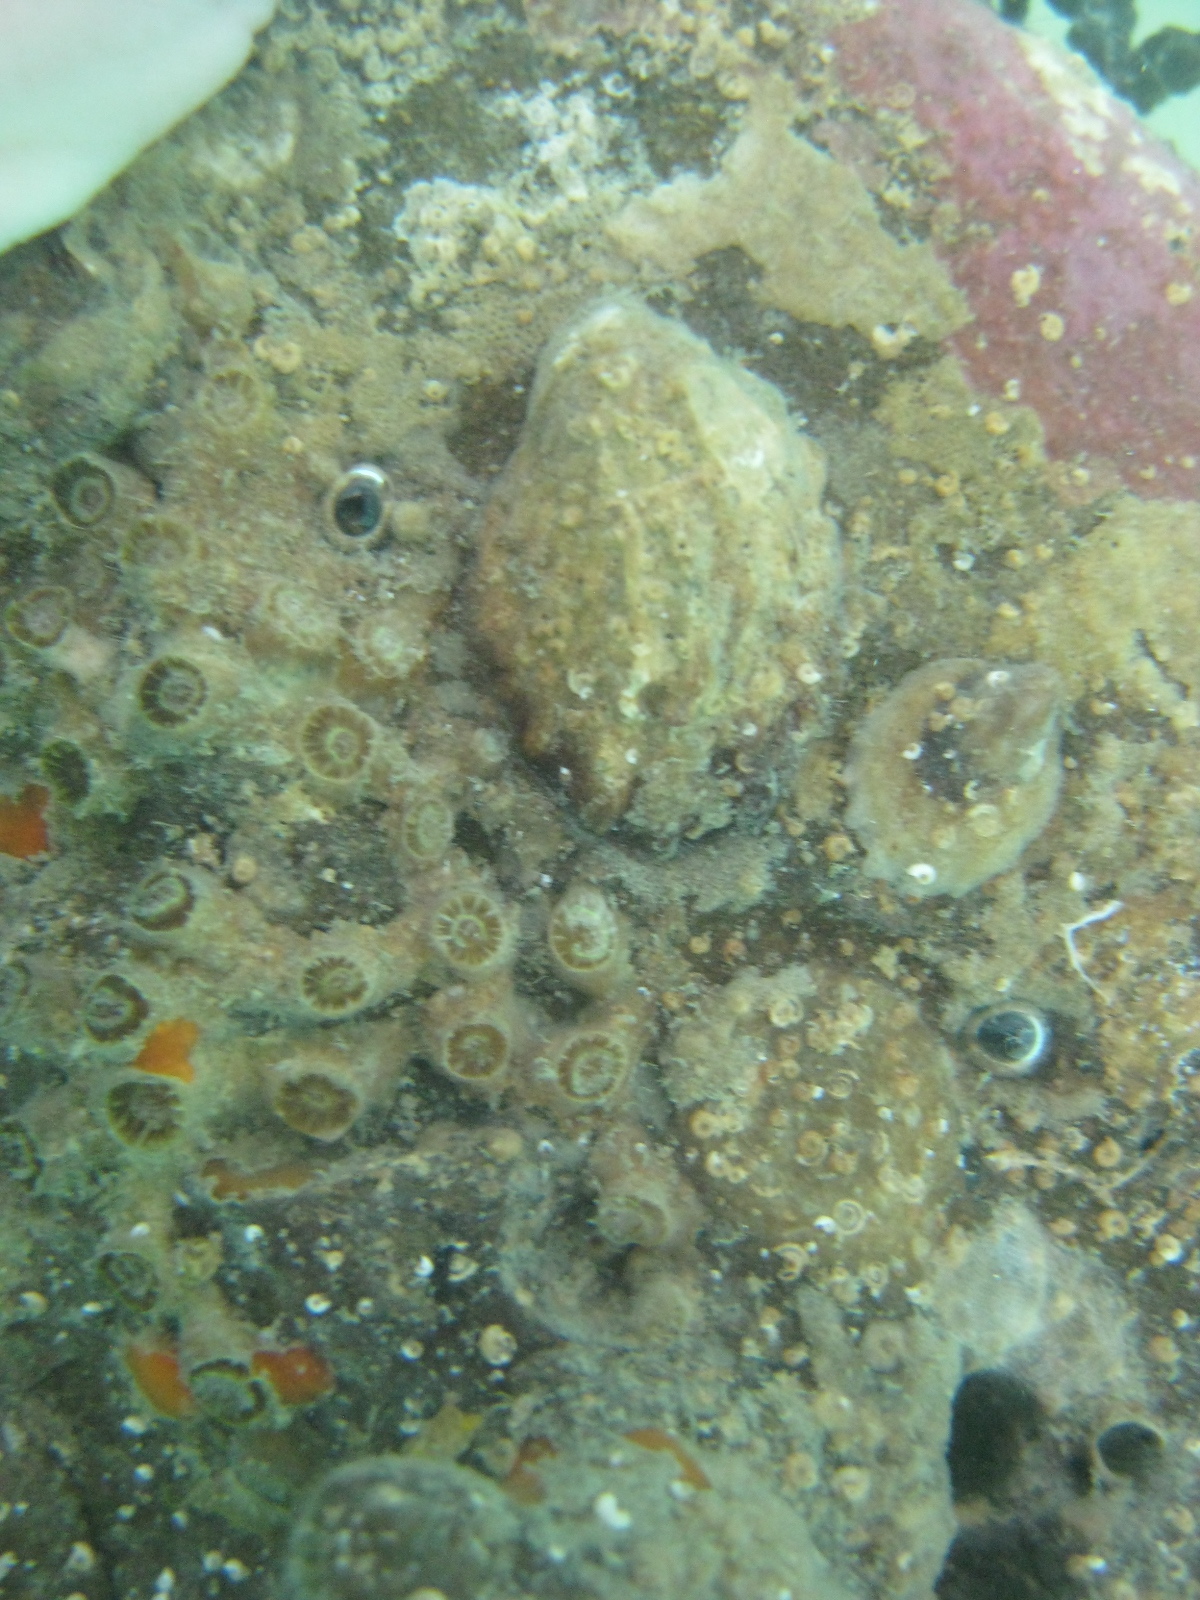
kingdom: Animalia
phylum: Mollusca
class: Gastropoda
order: Littorinimorpha
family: Calyptraeidae
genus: Maoricrypta
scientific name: Maoricrypta costata
